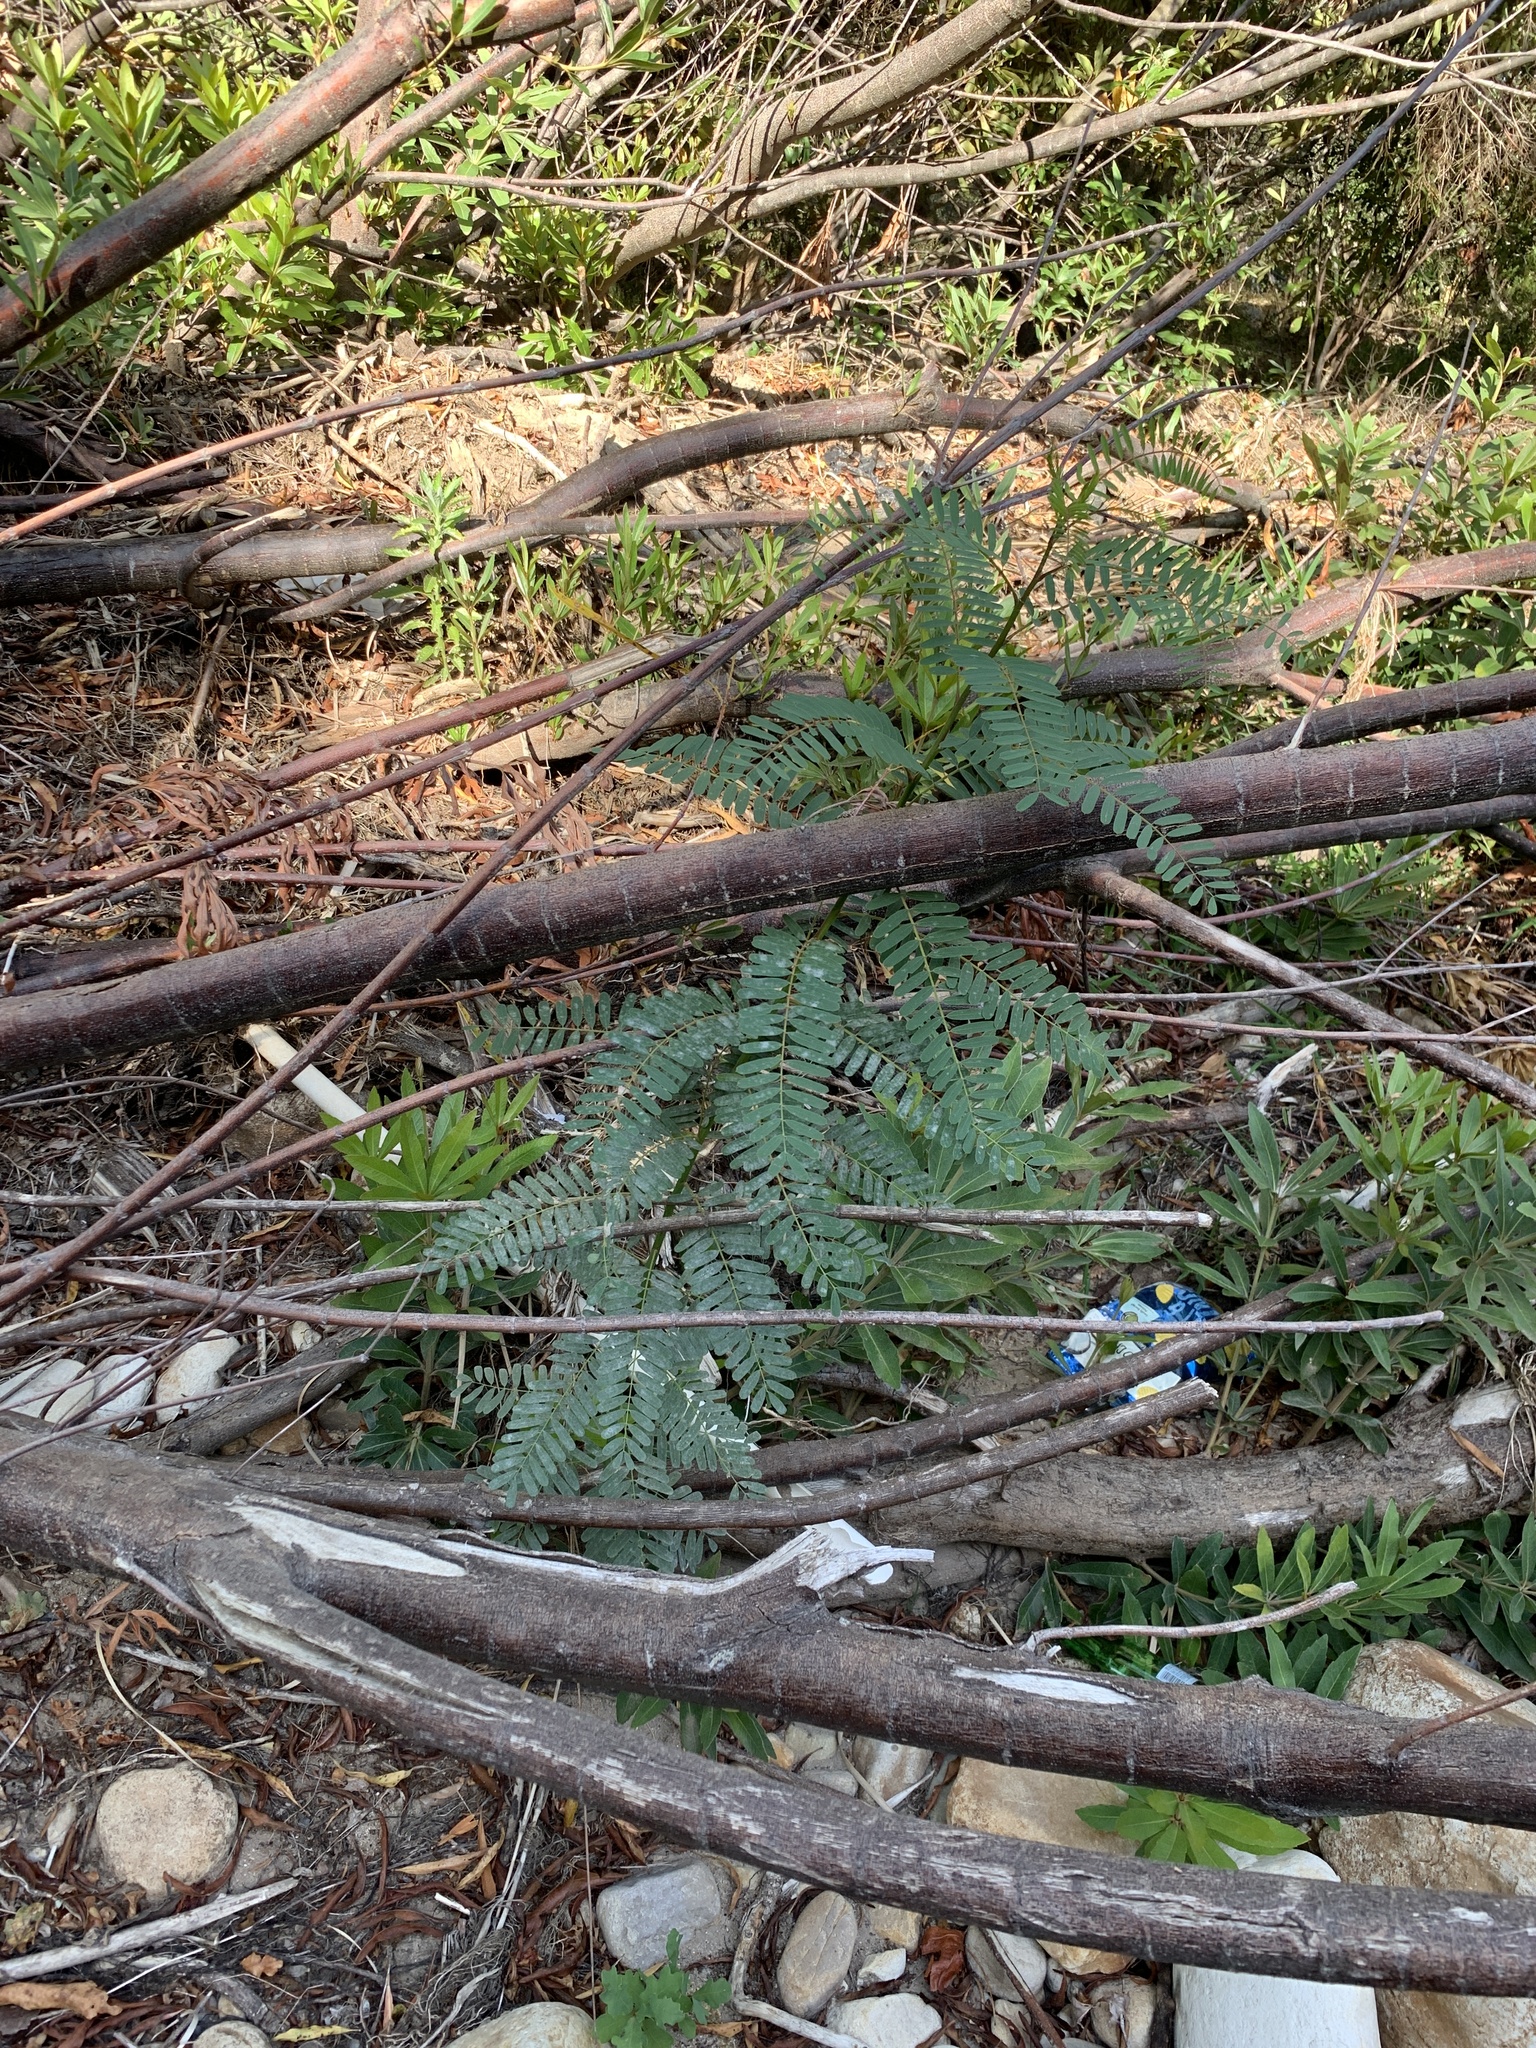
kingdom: Plantae
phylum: Tracheophyta
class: Magnoliopsida
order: Fabales
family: Fabaceae
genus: Sesbania
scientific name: Sesbania punicea
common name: Rattlebox
